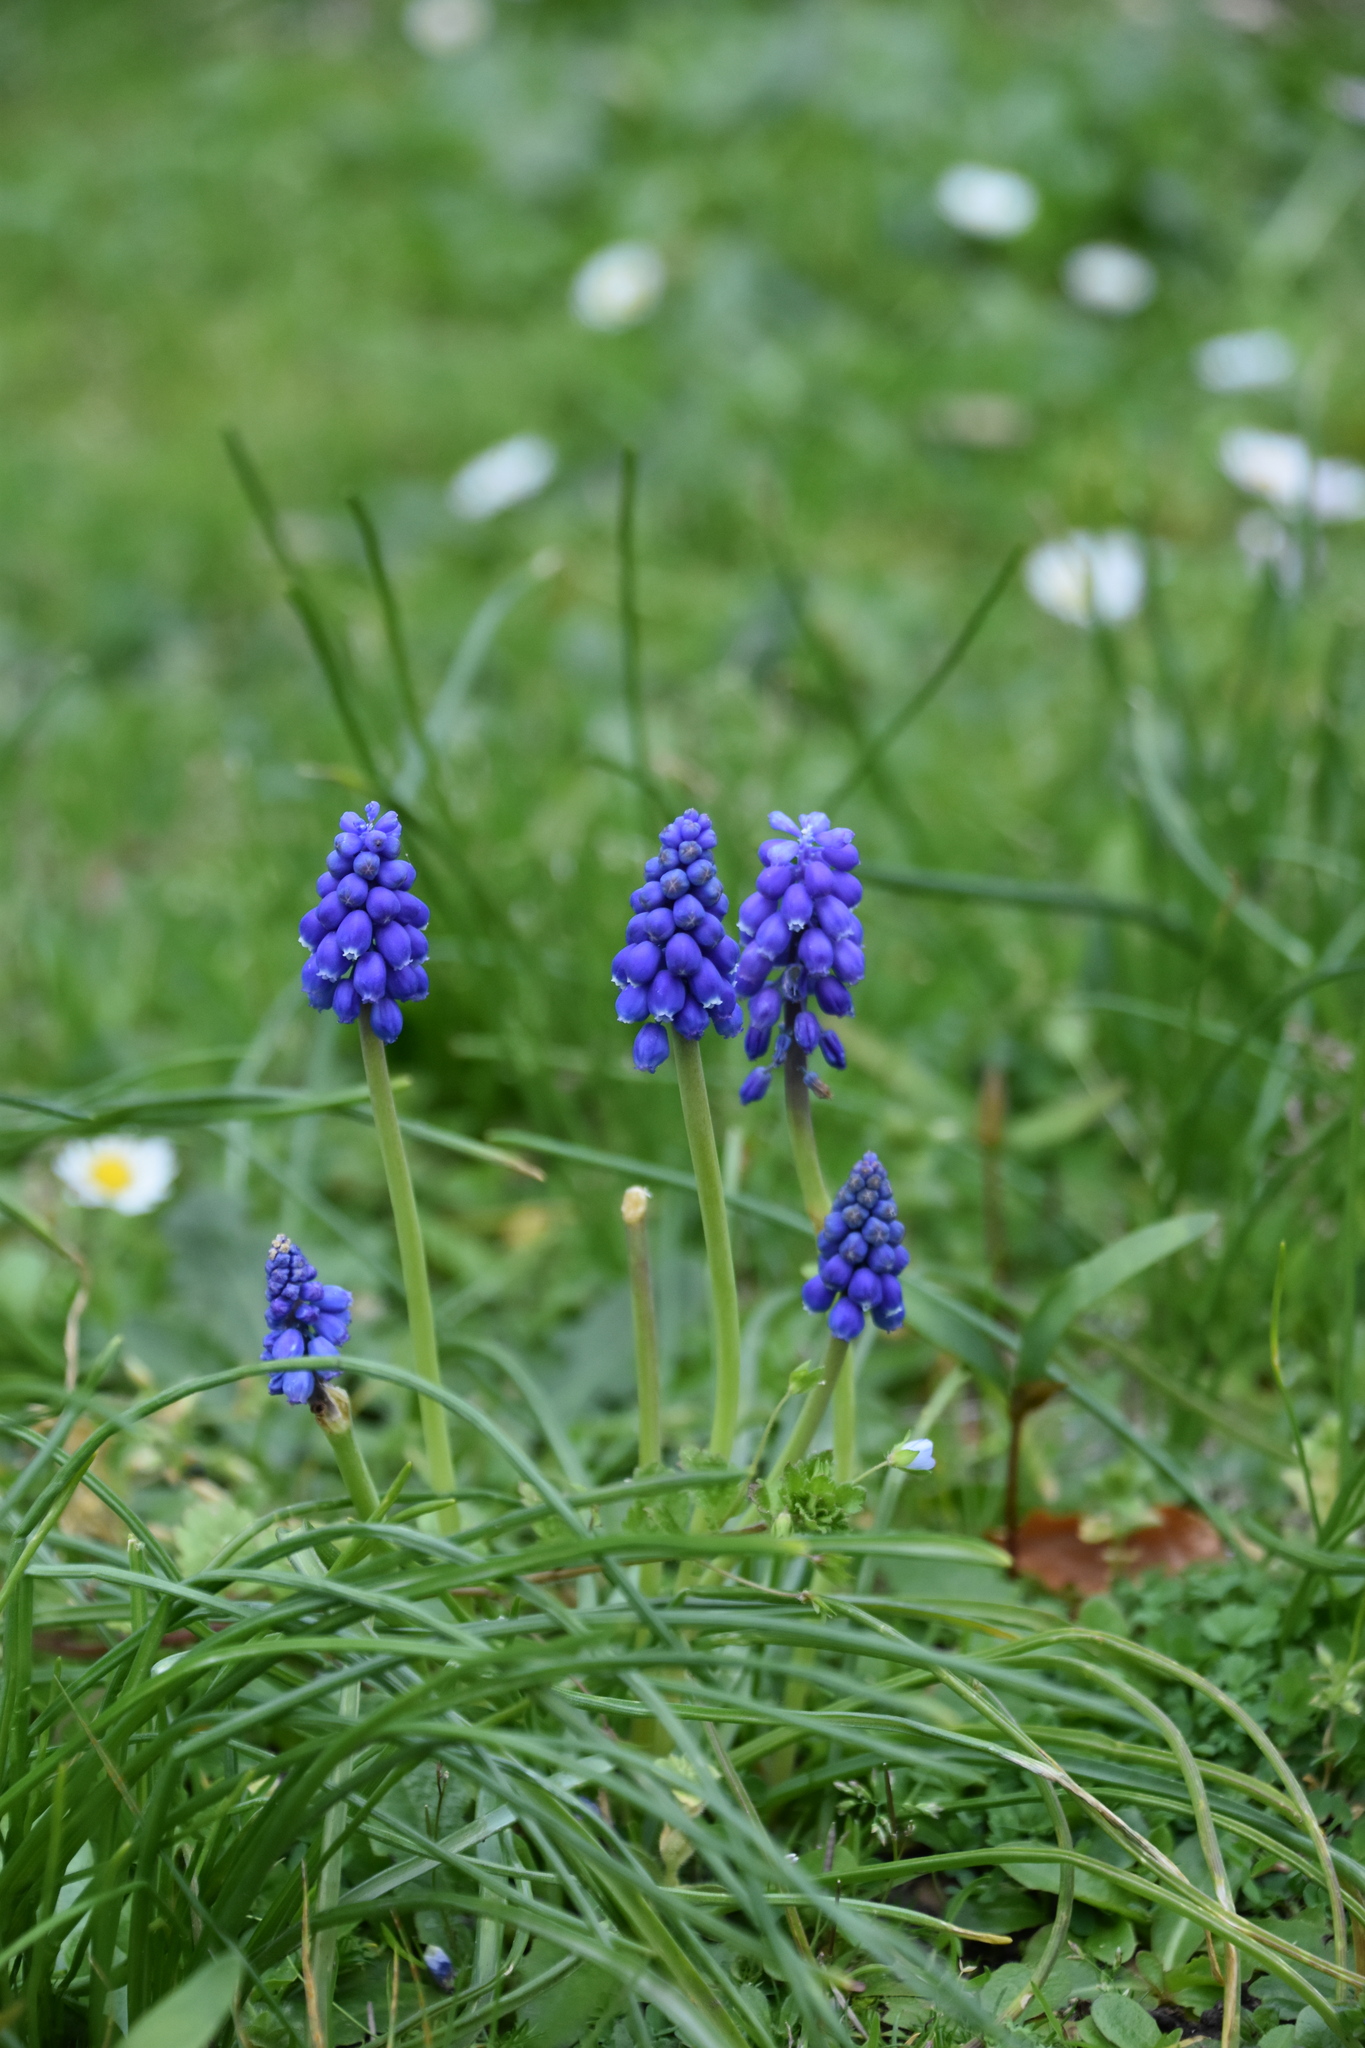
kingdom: Plantae
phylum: Tracheophyta
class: Liliopsida
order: Asparagales
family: Asparagaceae
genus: Muscari
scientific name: Muscari armeniacum
